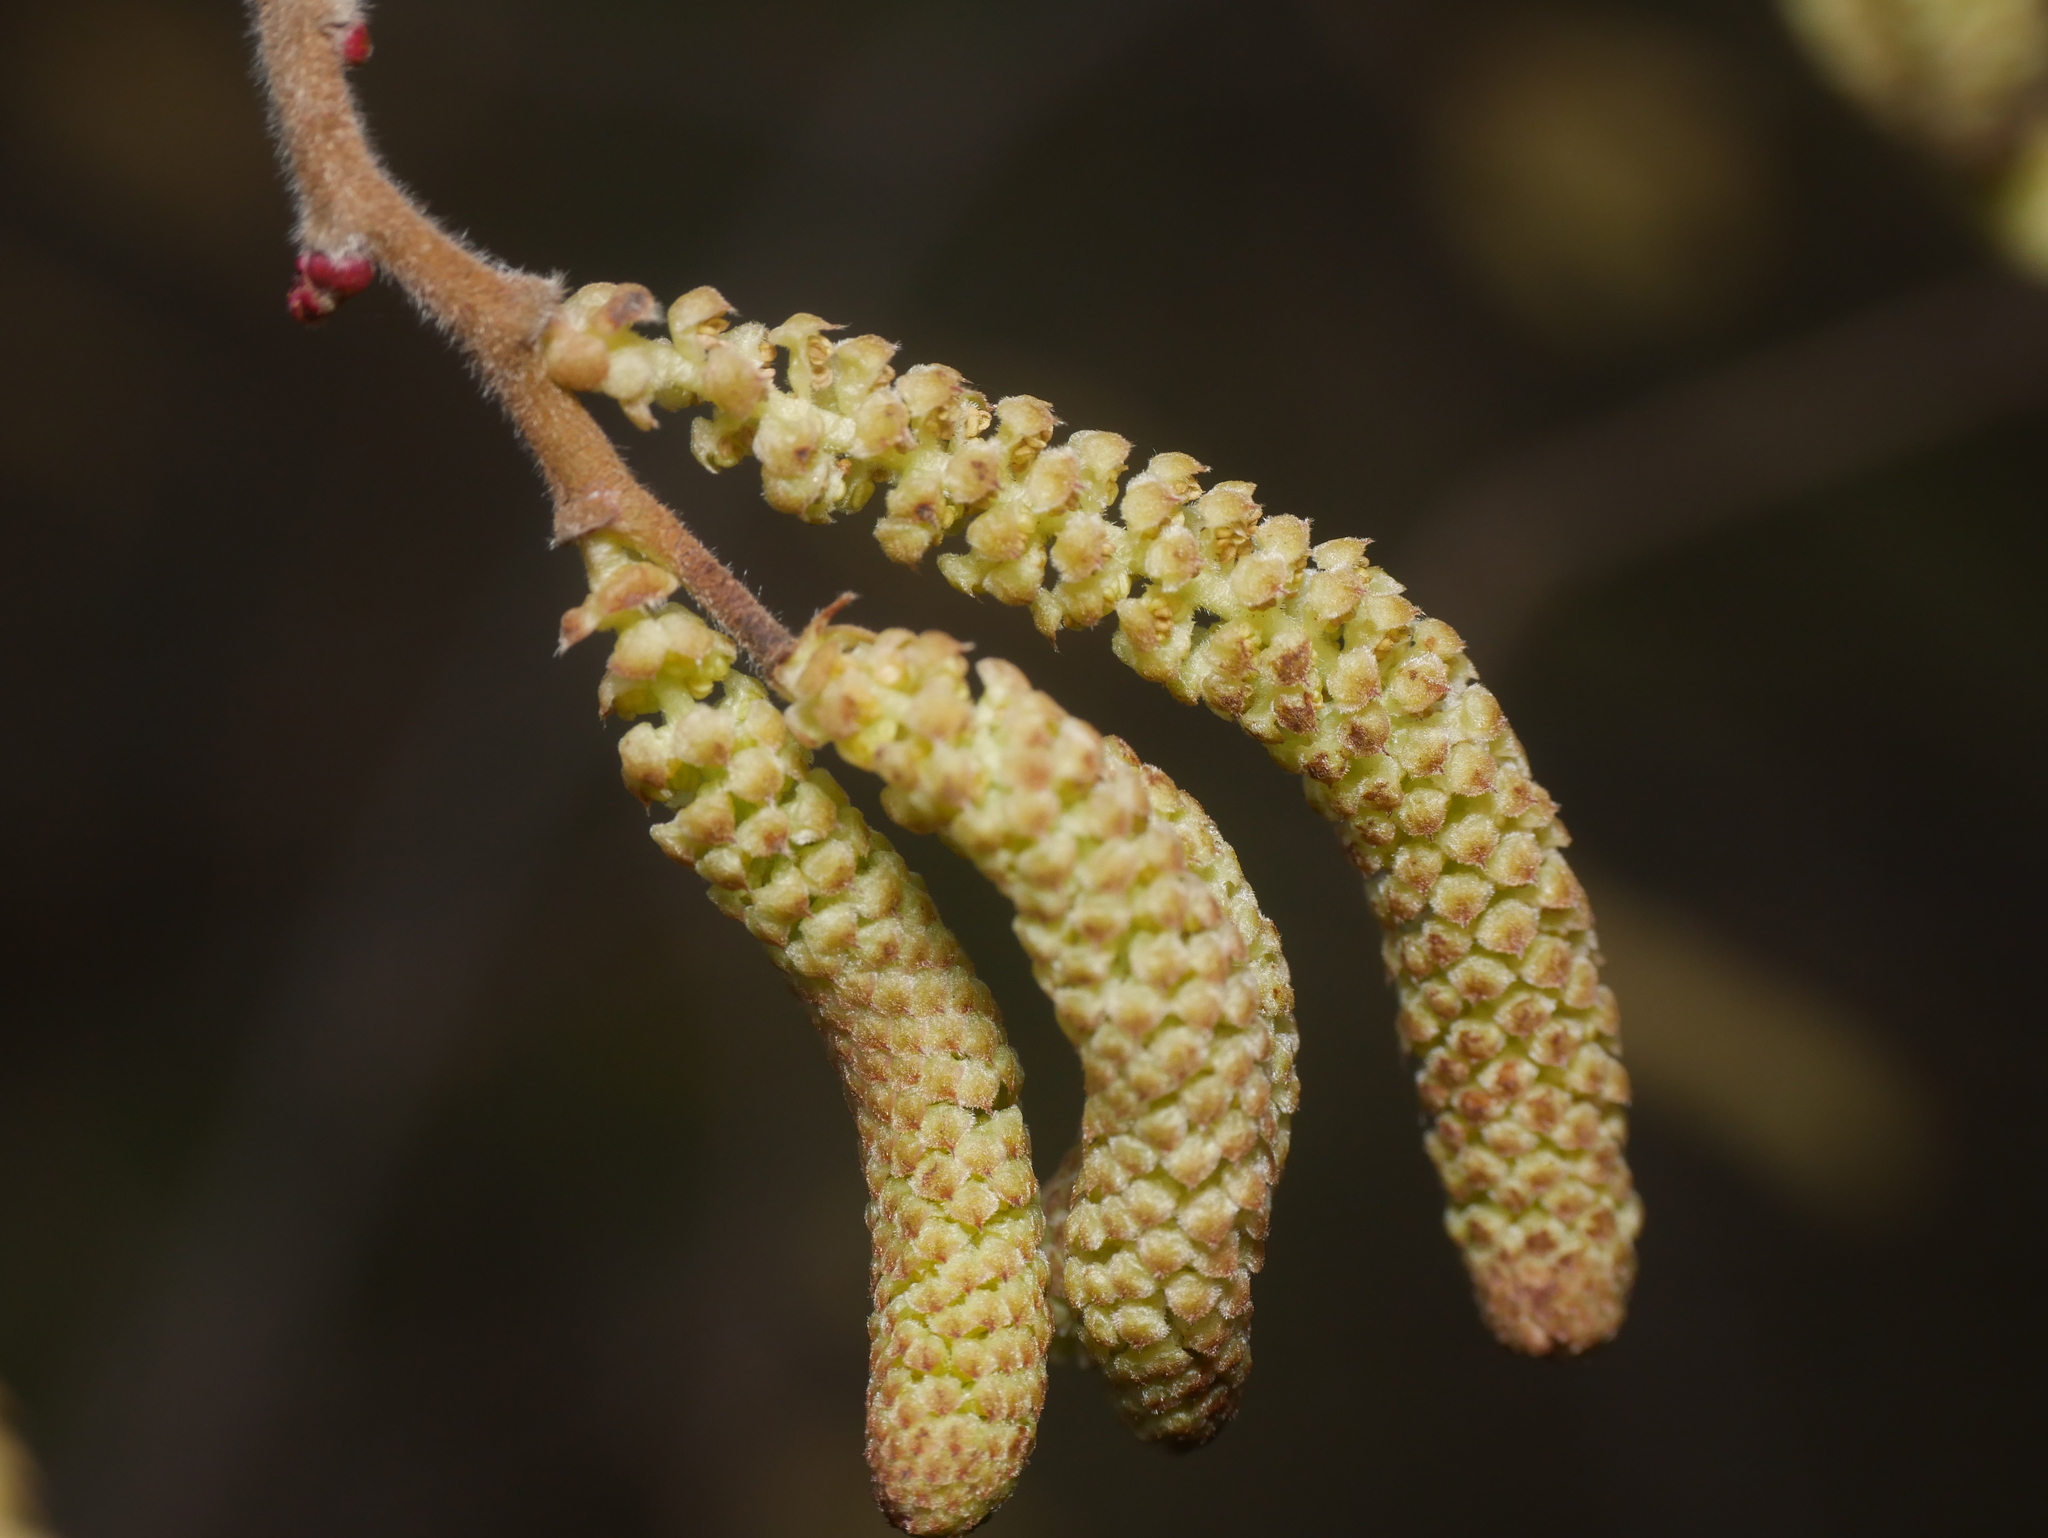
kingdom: Plantae
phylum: Tracheophyta
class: Magnoliopsida
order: Fagales
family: Betulaceae
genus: Corylus
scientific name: Corylus avellana
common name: European hazel
